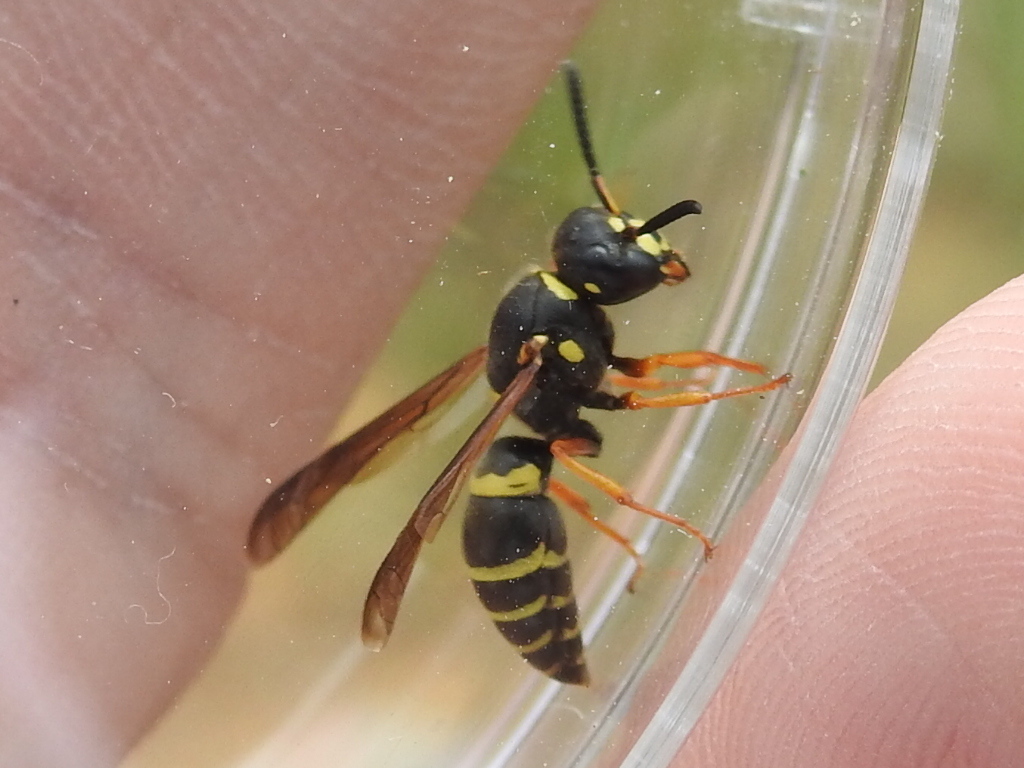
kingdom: Animalia
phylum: Arthropoda
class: Insecta
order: Hymenoptera
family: Eumenidae
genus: Euodynerus
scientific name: Euodynerus
